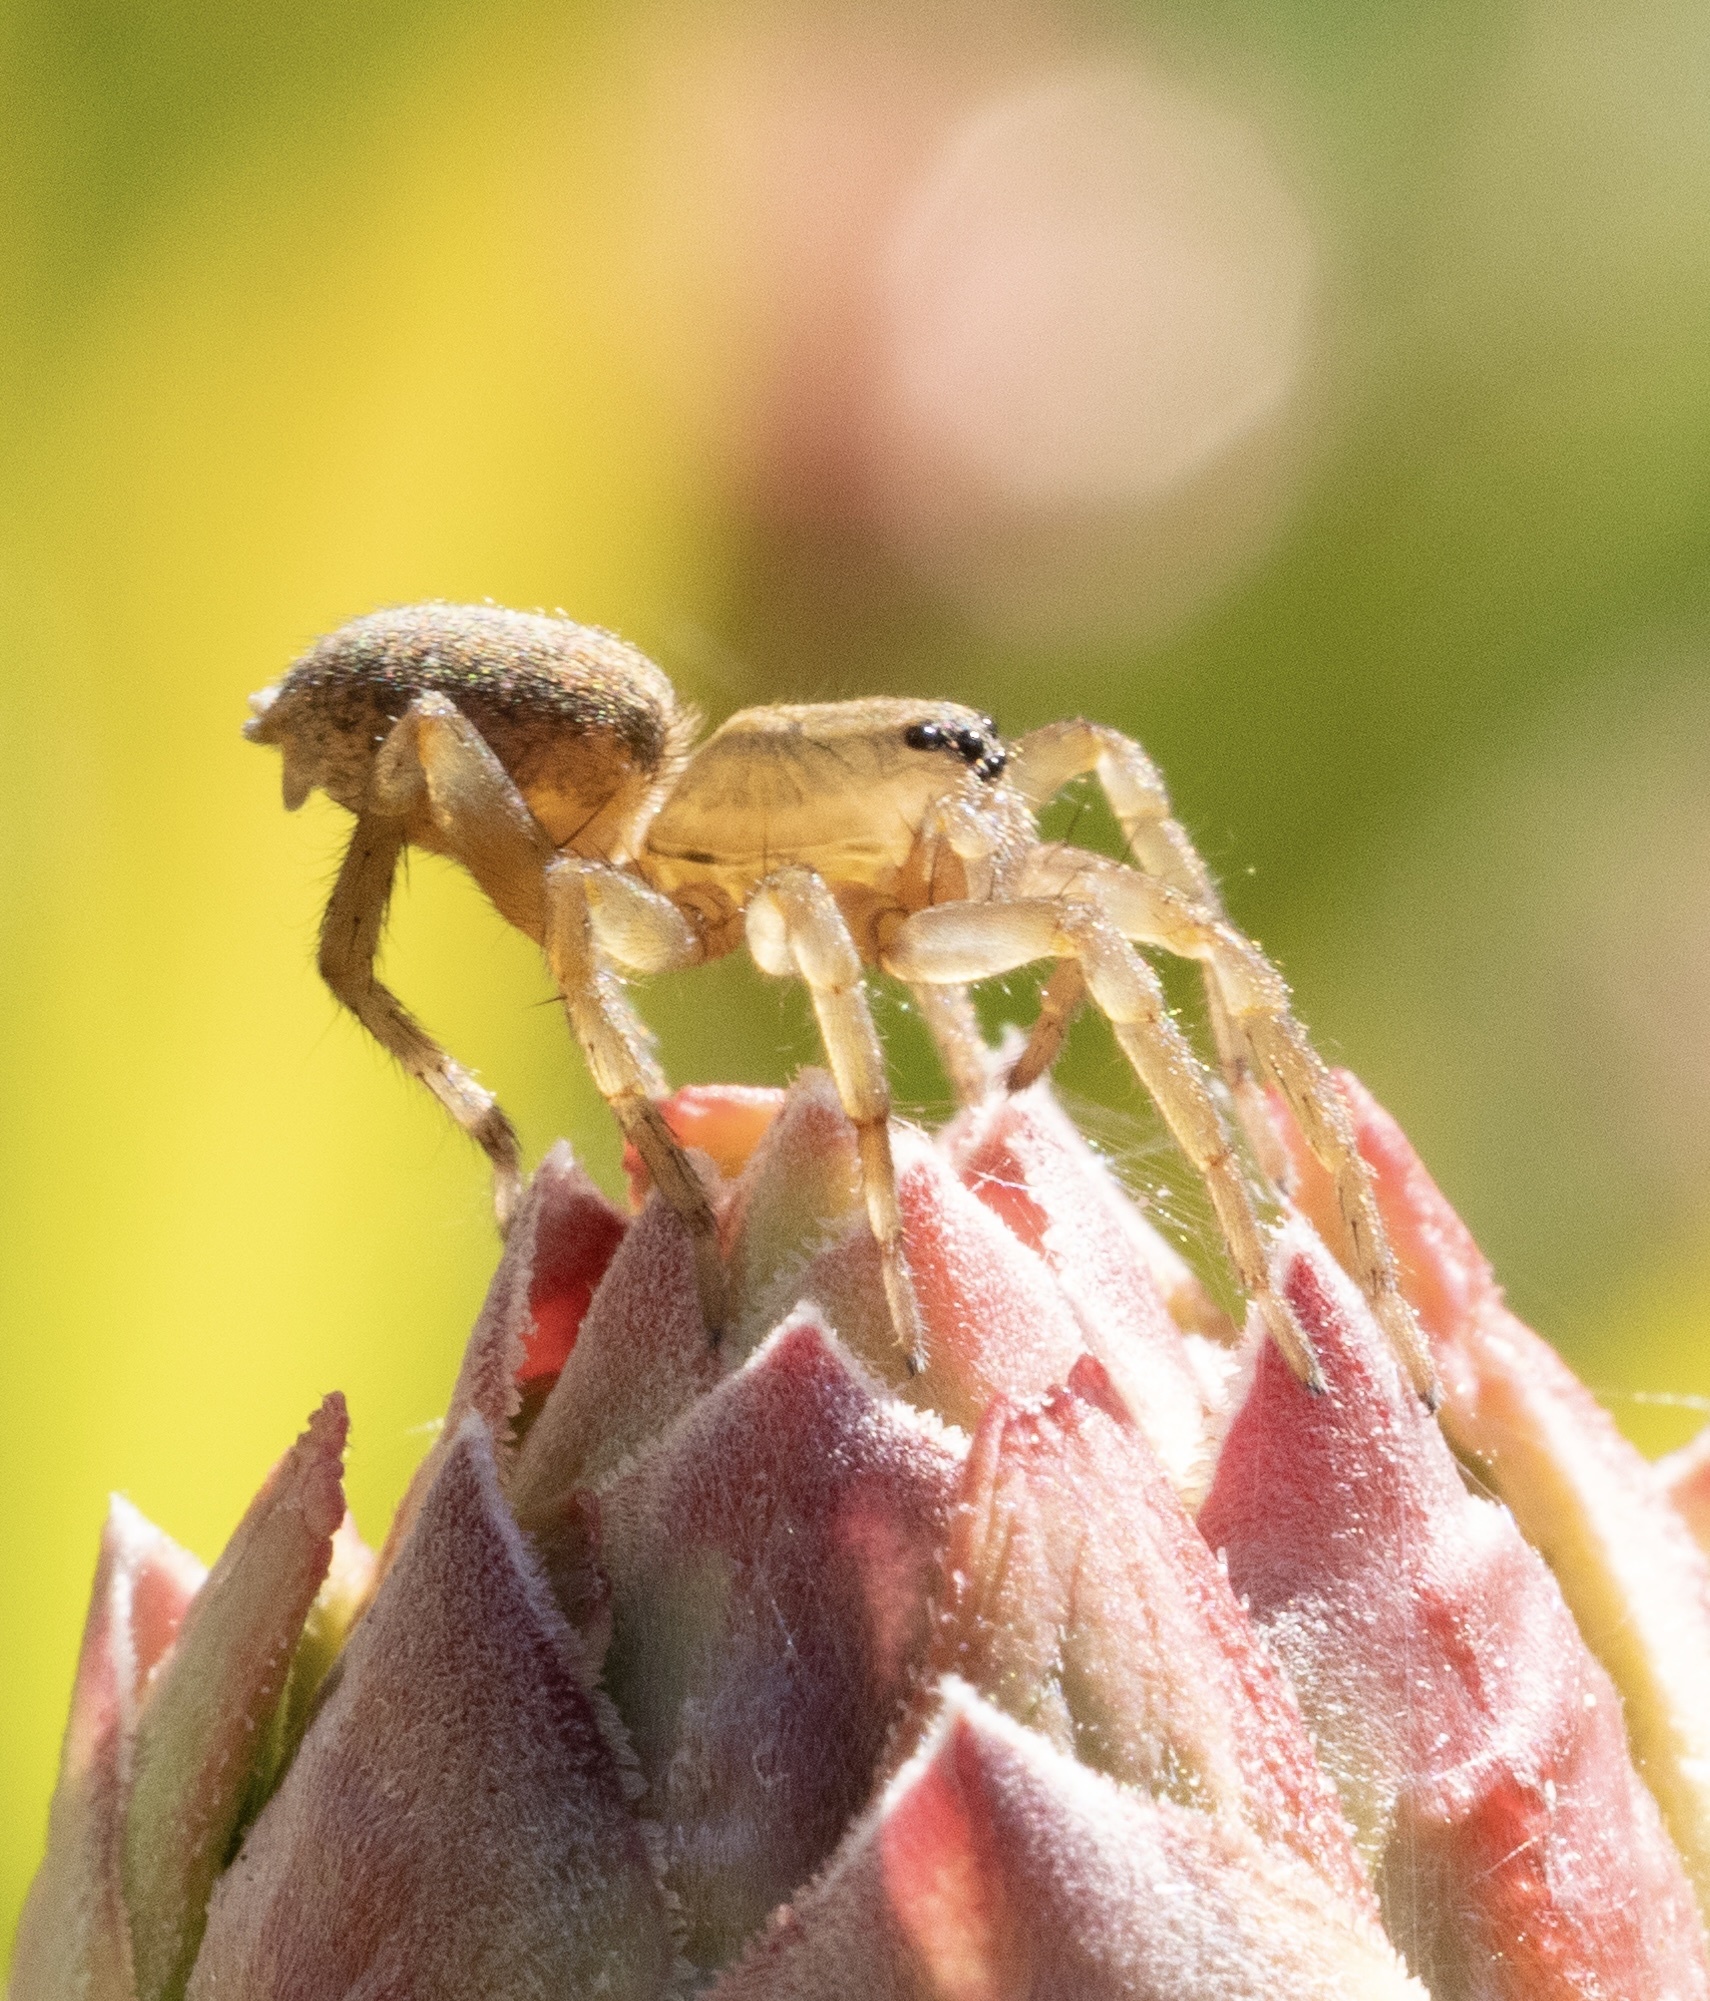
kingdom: Animalia
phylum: Arthropoda
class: Arachnida
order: Araneae
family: Lycosidae
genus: Trochosa
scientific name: Trochosa ruricola
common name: Spider
